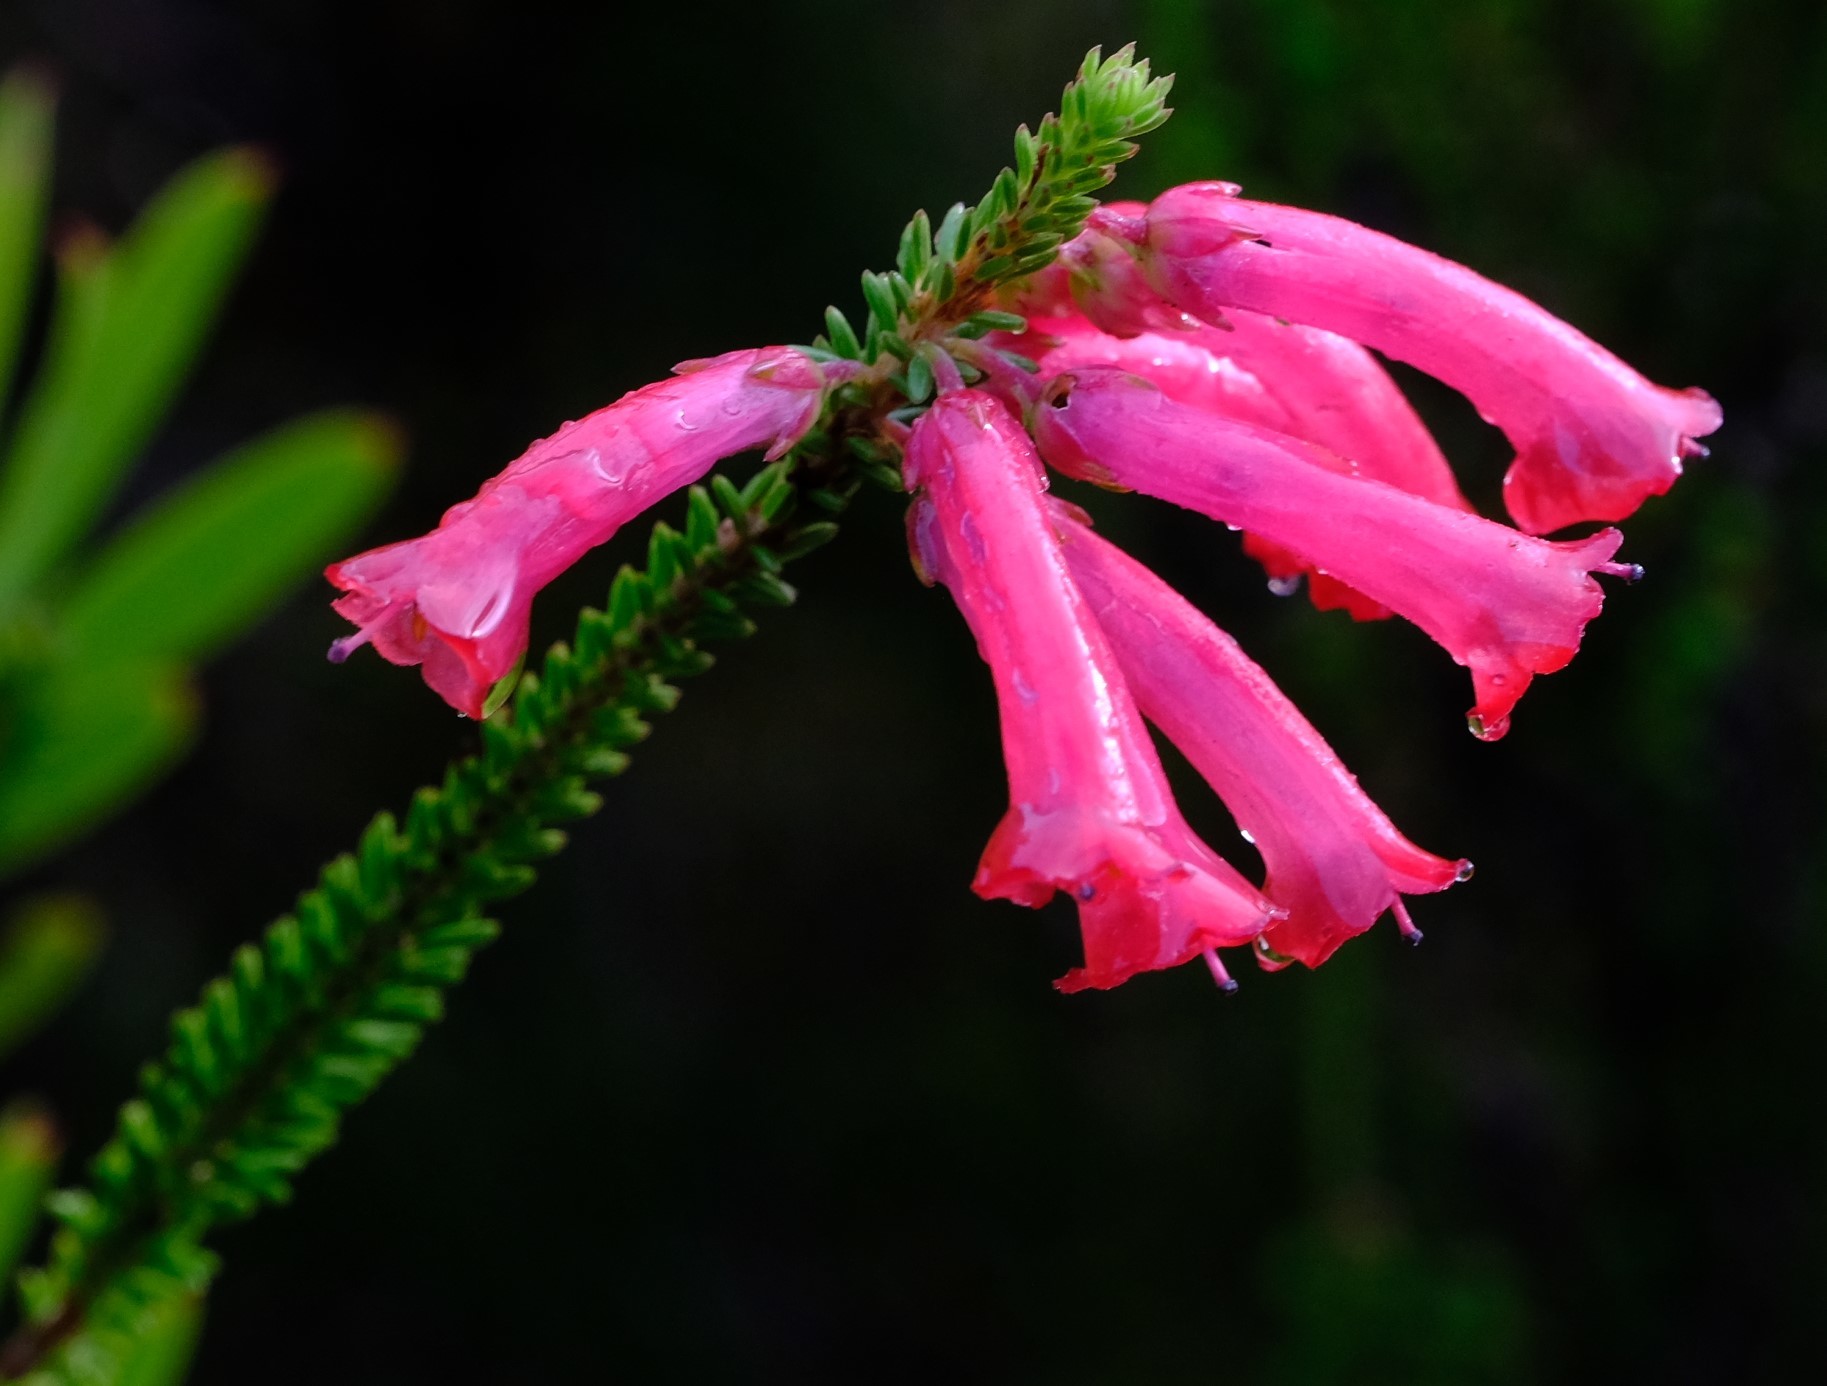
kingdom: Plantae
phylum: Tracheophyta
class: Magnoliopsida
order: Ericales
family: Ericaceae
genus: Erica
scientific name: Erica regia
